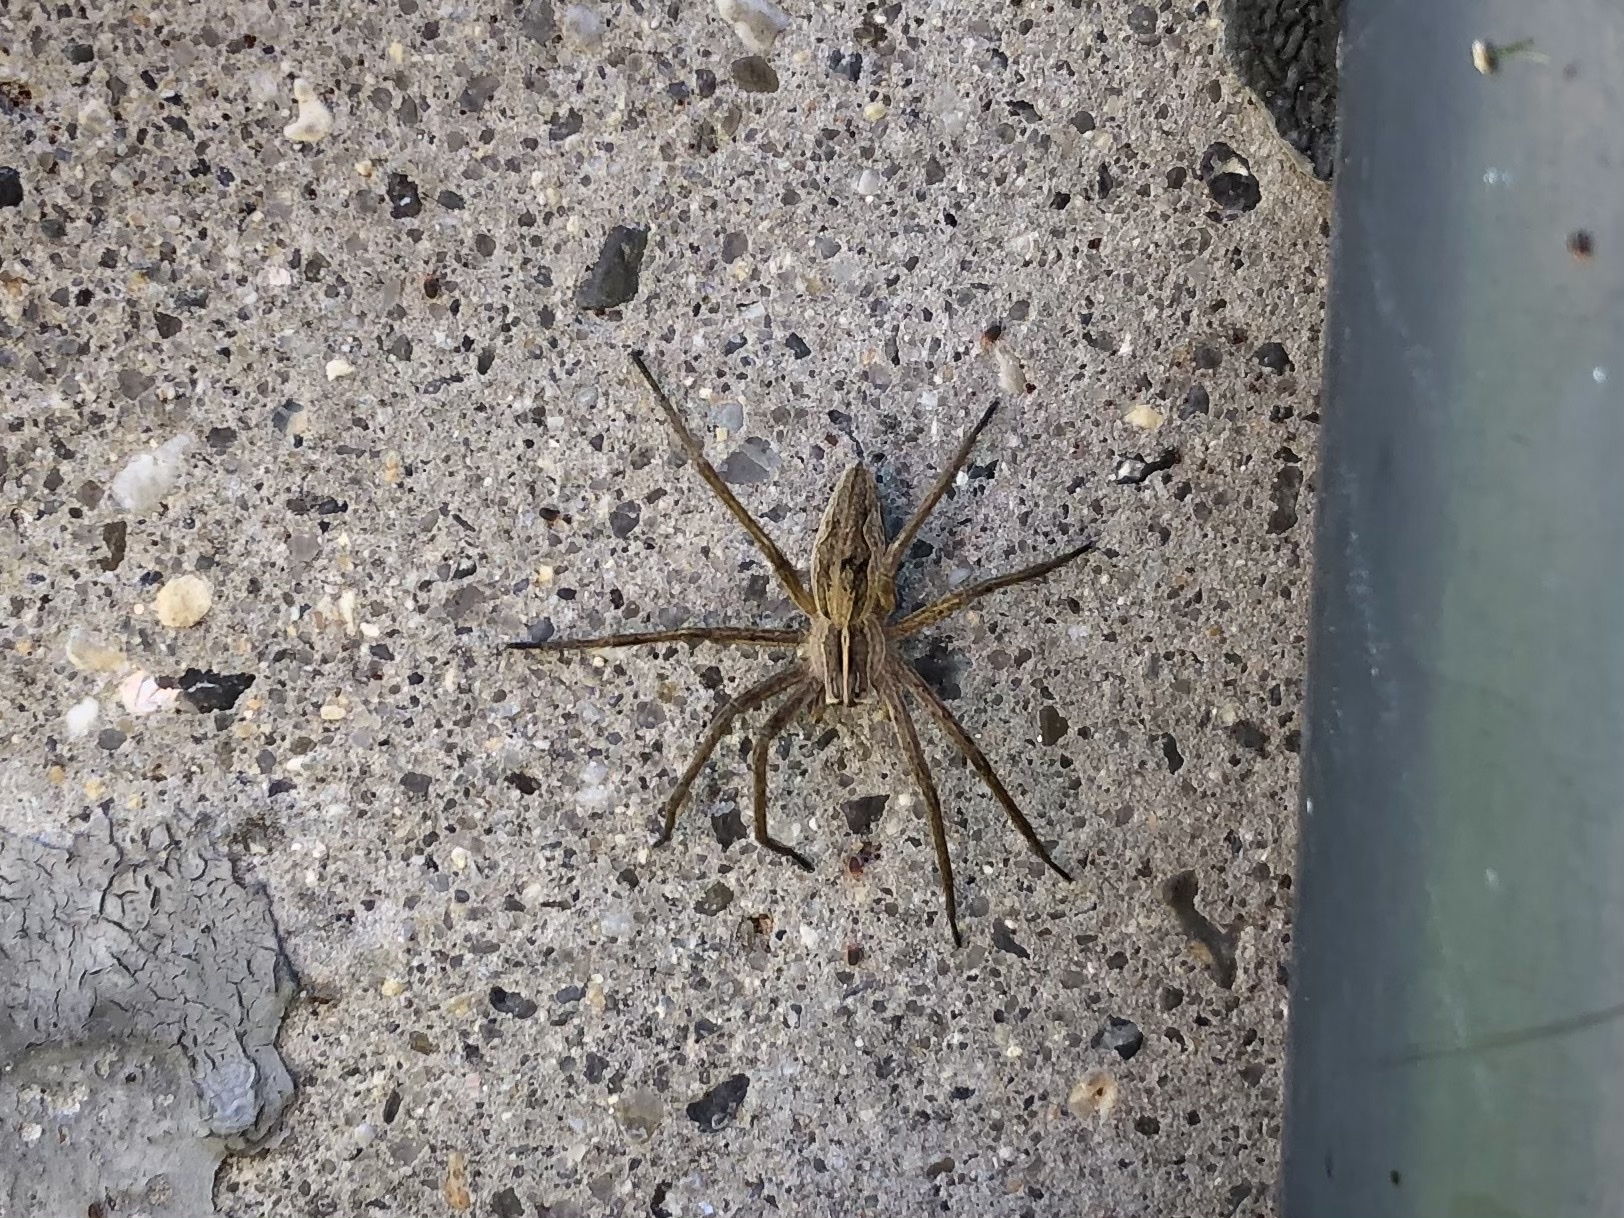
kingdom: Animalia
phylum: Arthropoda
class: Arachnida
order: Araneae
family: Pisauridae
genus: Pisaura
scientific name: Pisaura mirabilis
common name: Tent spider
